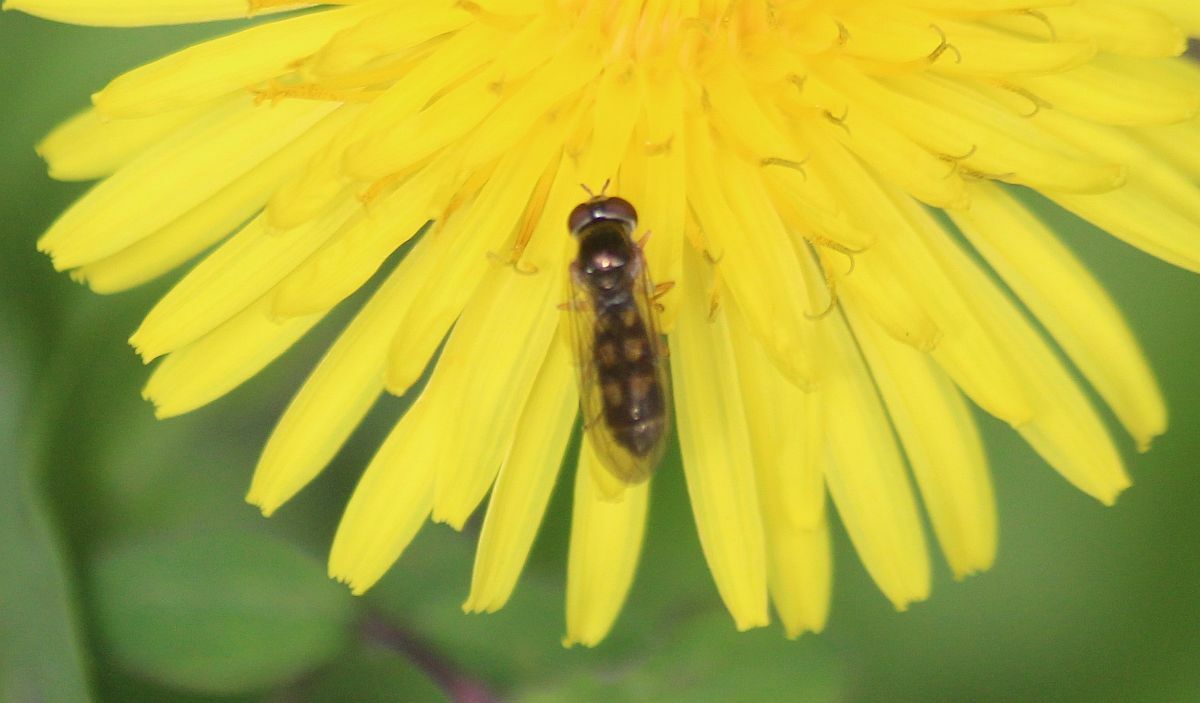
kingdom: Animalia
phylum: Arthropoda
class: Insecta
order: Diptera
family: Syrphidae
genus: Melanostoma
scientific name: Melanostoma
